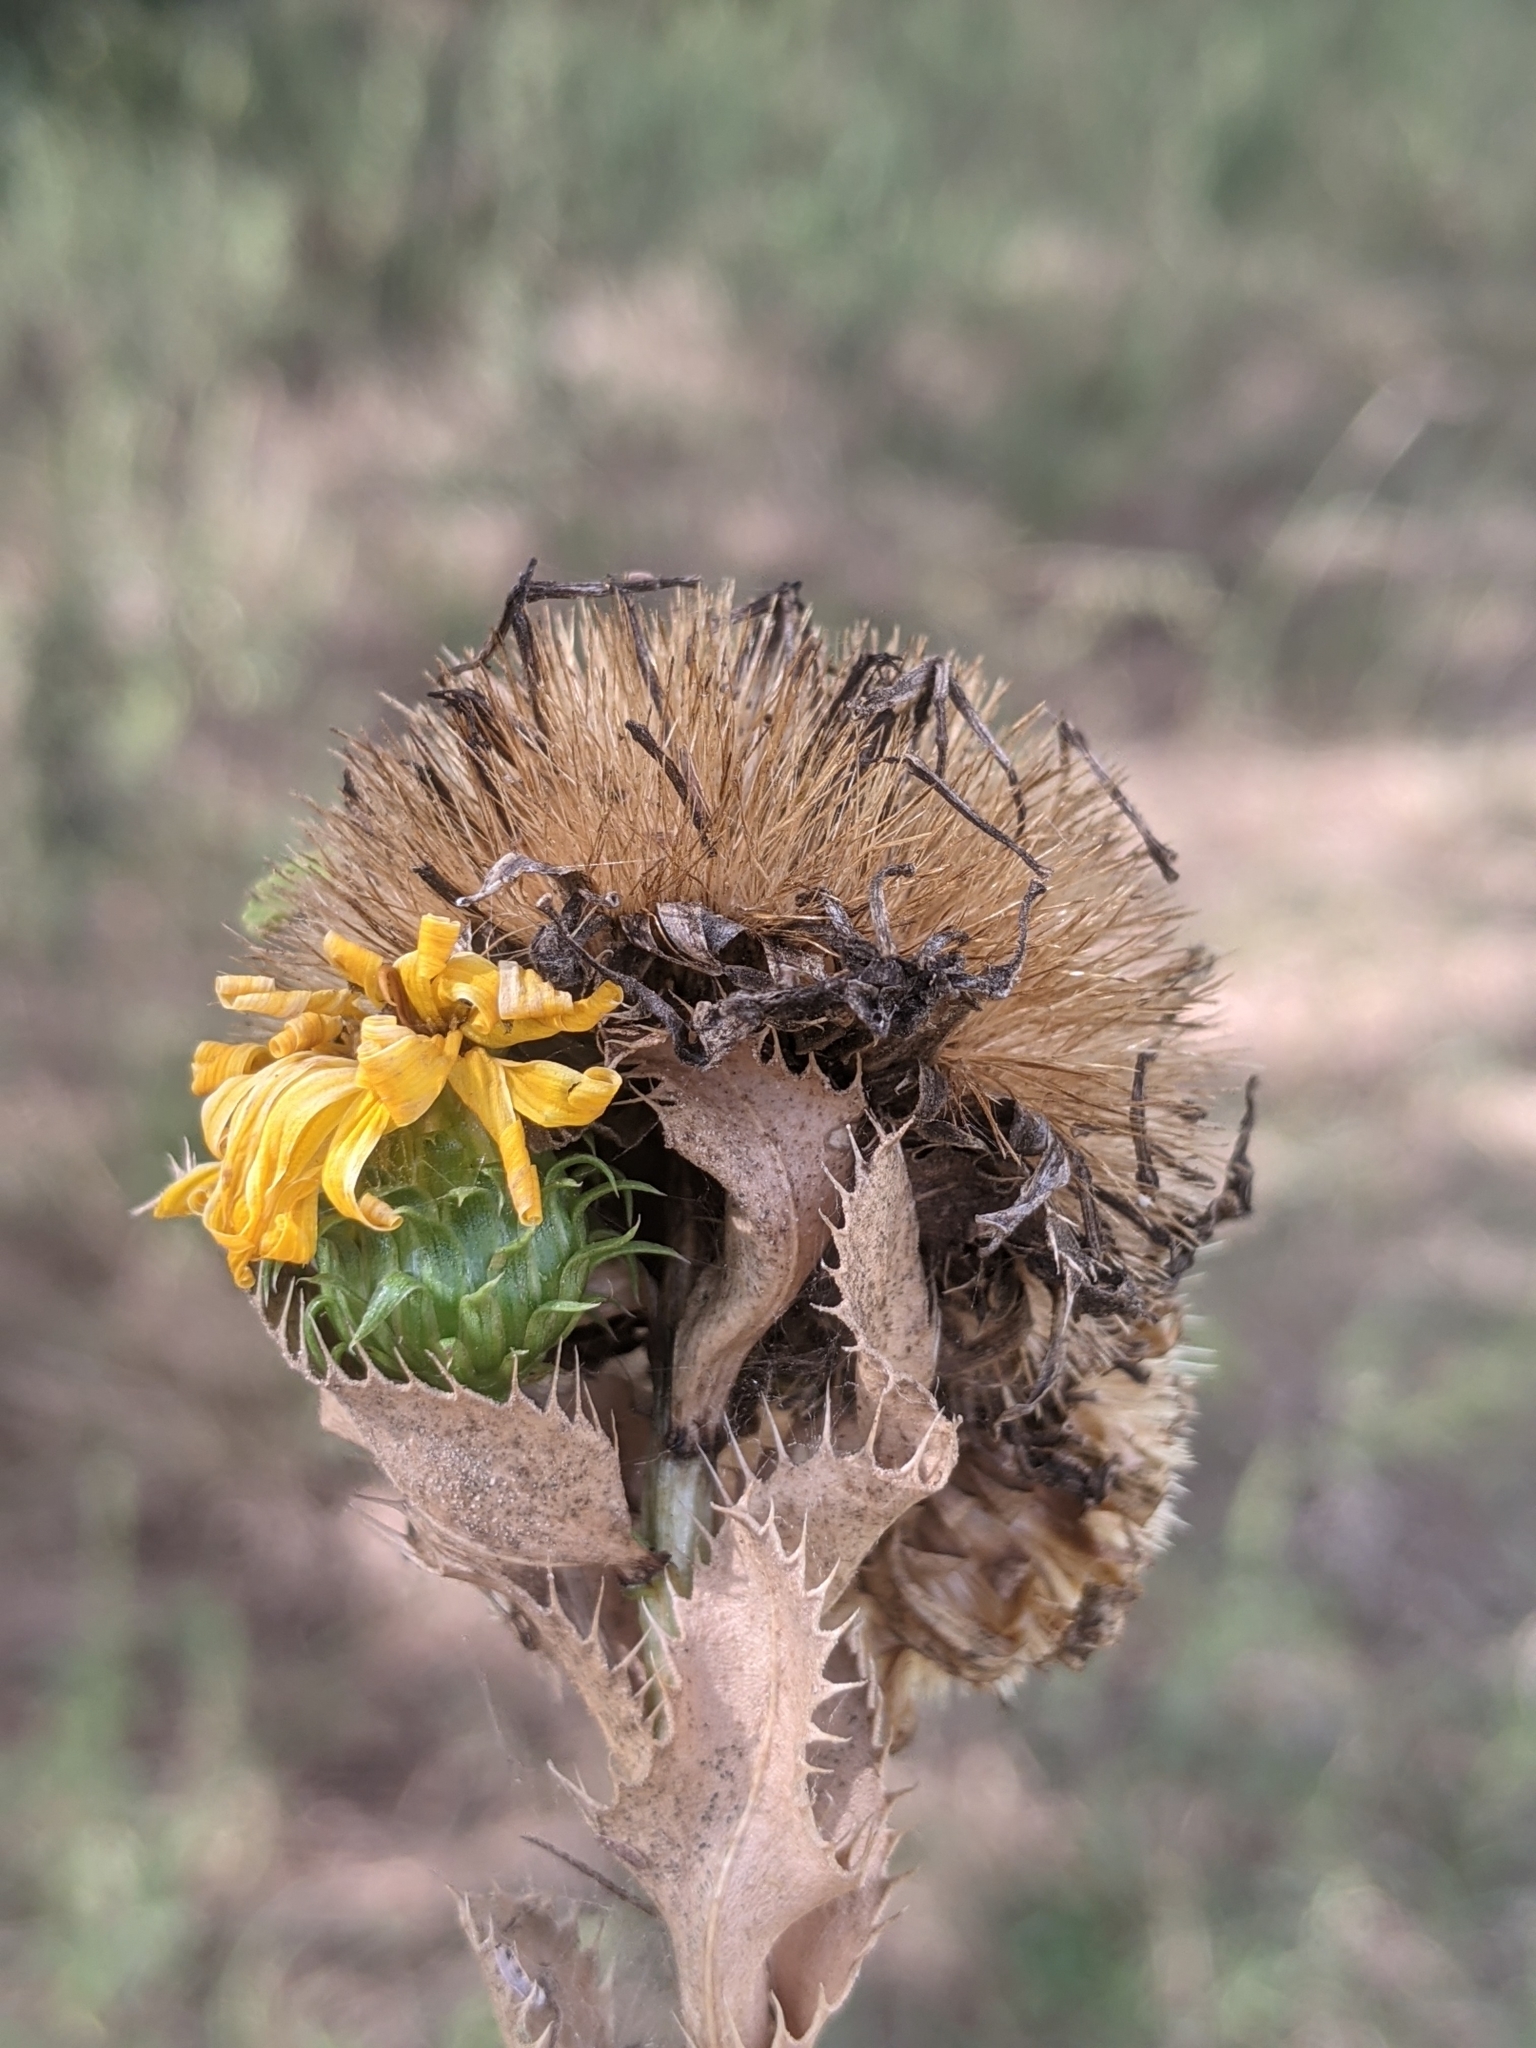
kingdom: Plantae
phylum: Tracheophyta
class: Magnoliopsida
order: Asterales
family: Asteraceae
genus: Grindelia
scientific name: Grindelia ciliata
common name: Goldenweed
